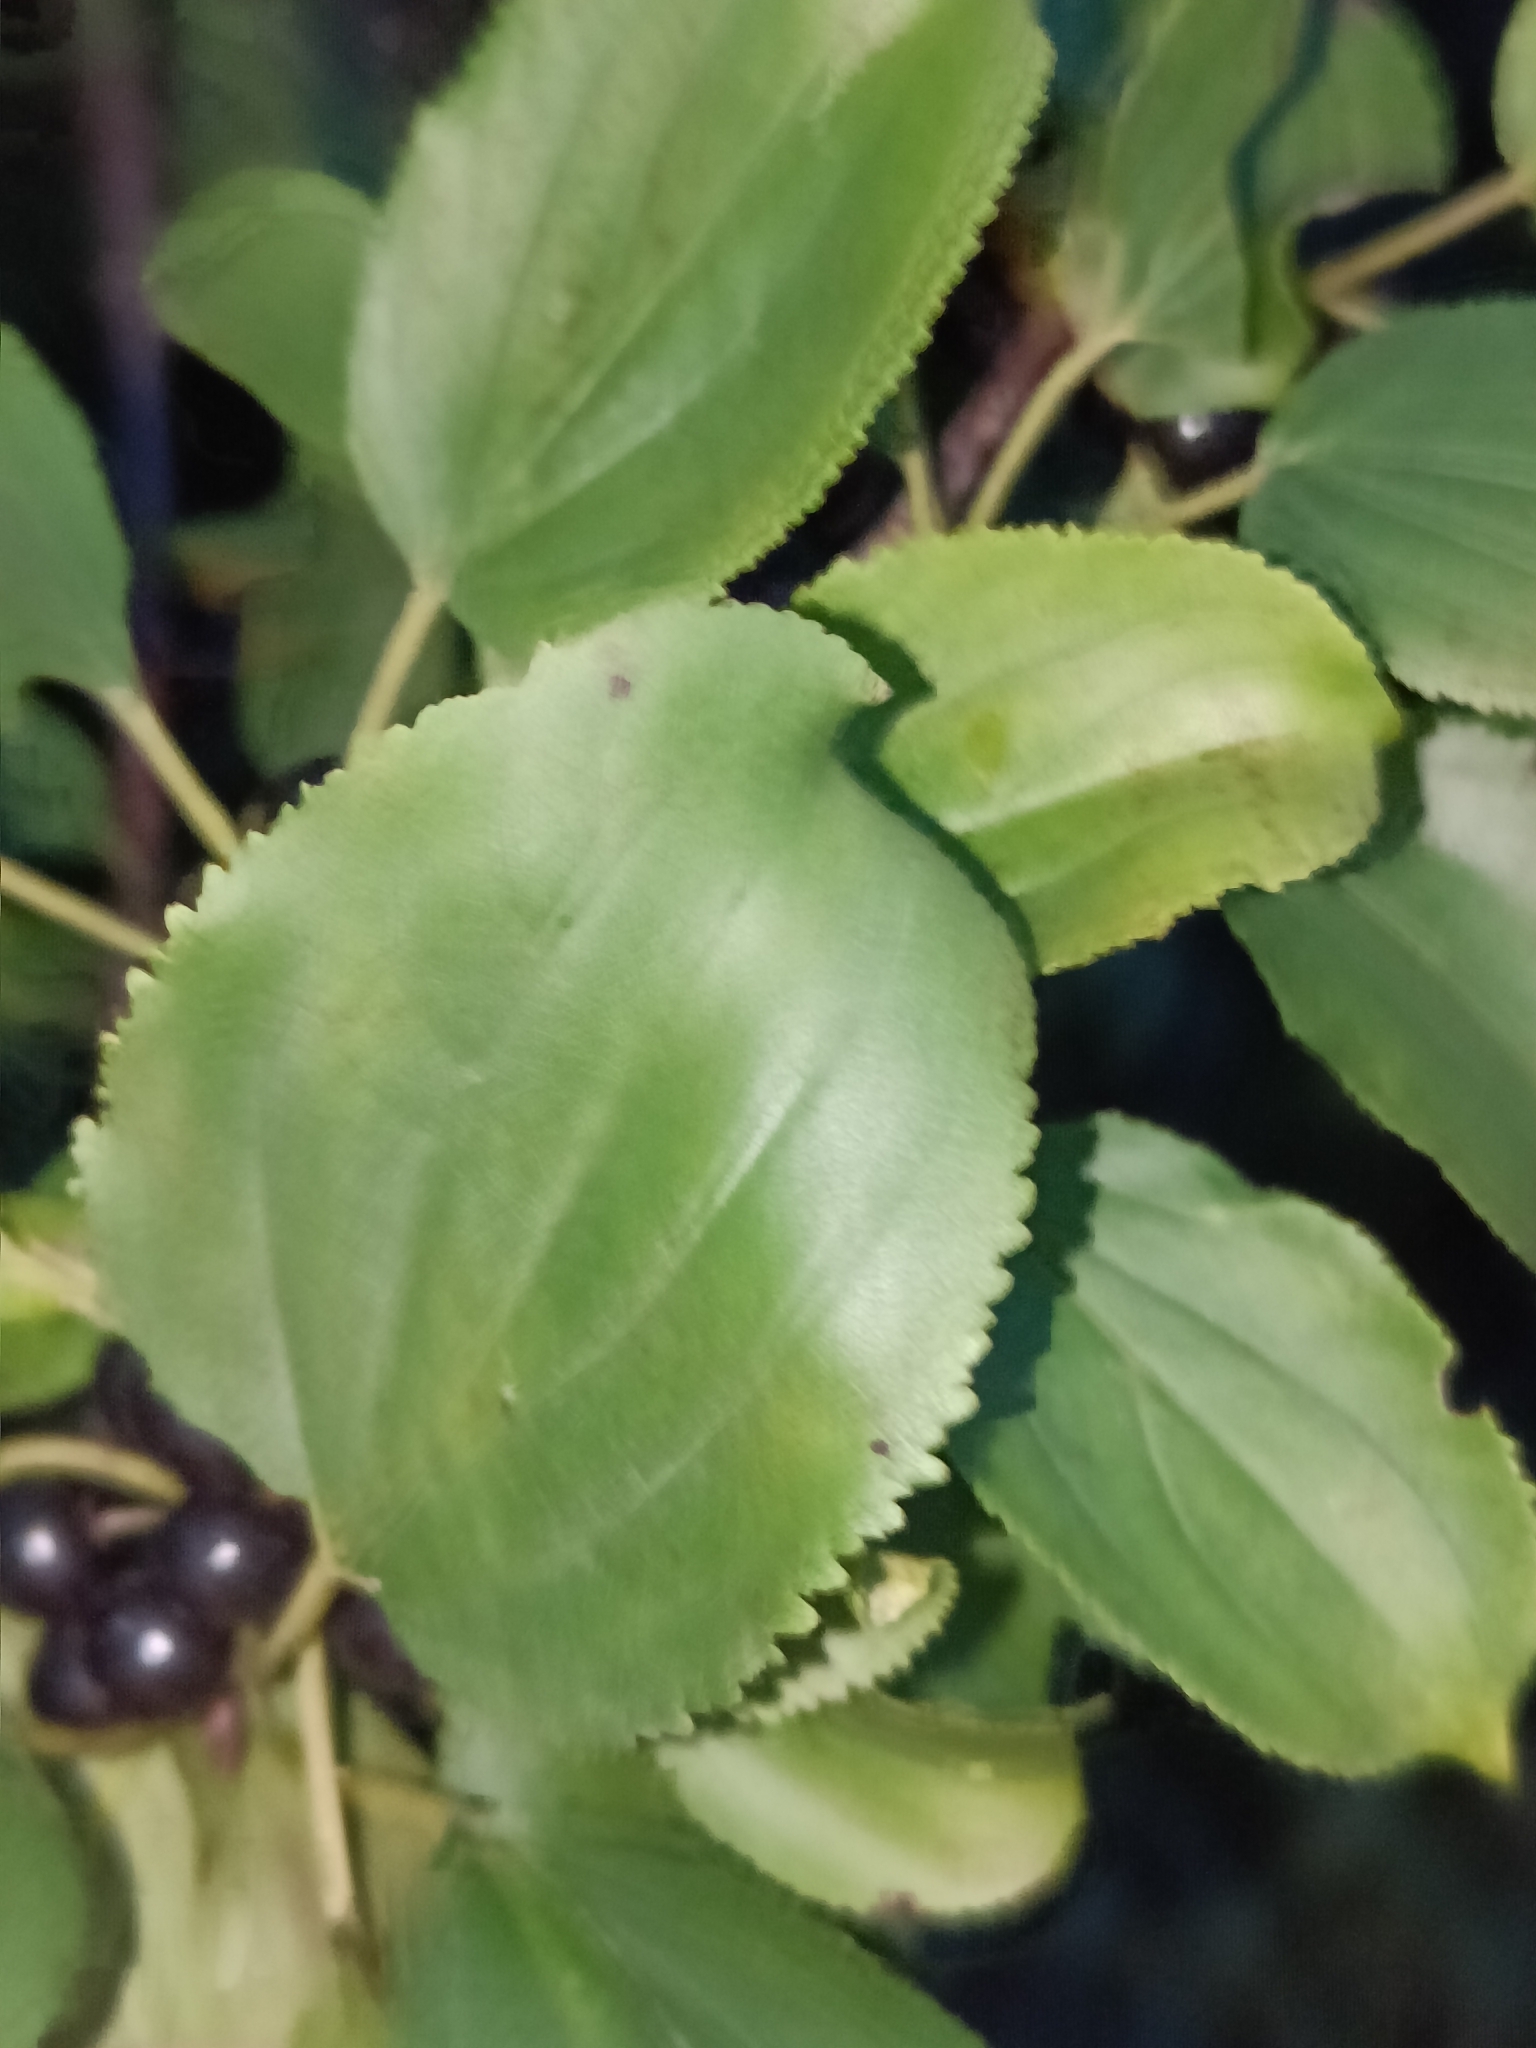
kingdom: Plantae
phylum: Tracheophyta
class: Magnoliopsida
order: Rosales
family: Rhamnaceae
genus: Rhamnus
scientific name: Rhamnus cathartica
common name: Common buckthorn
